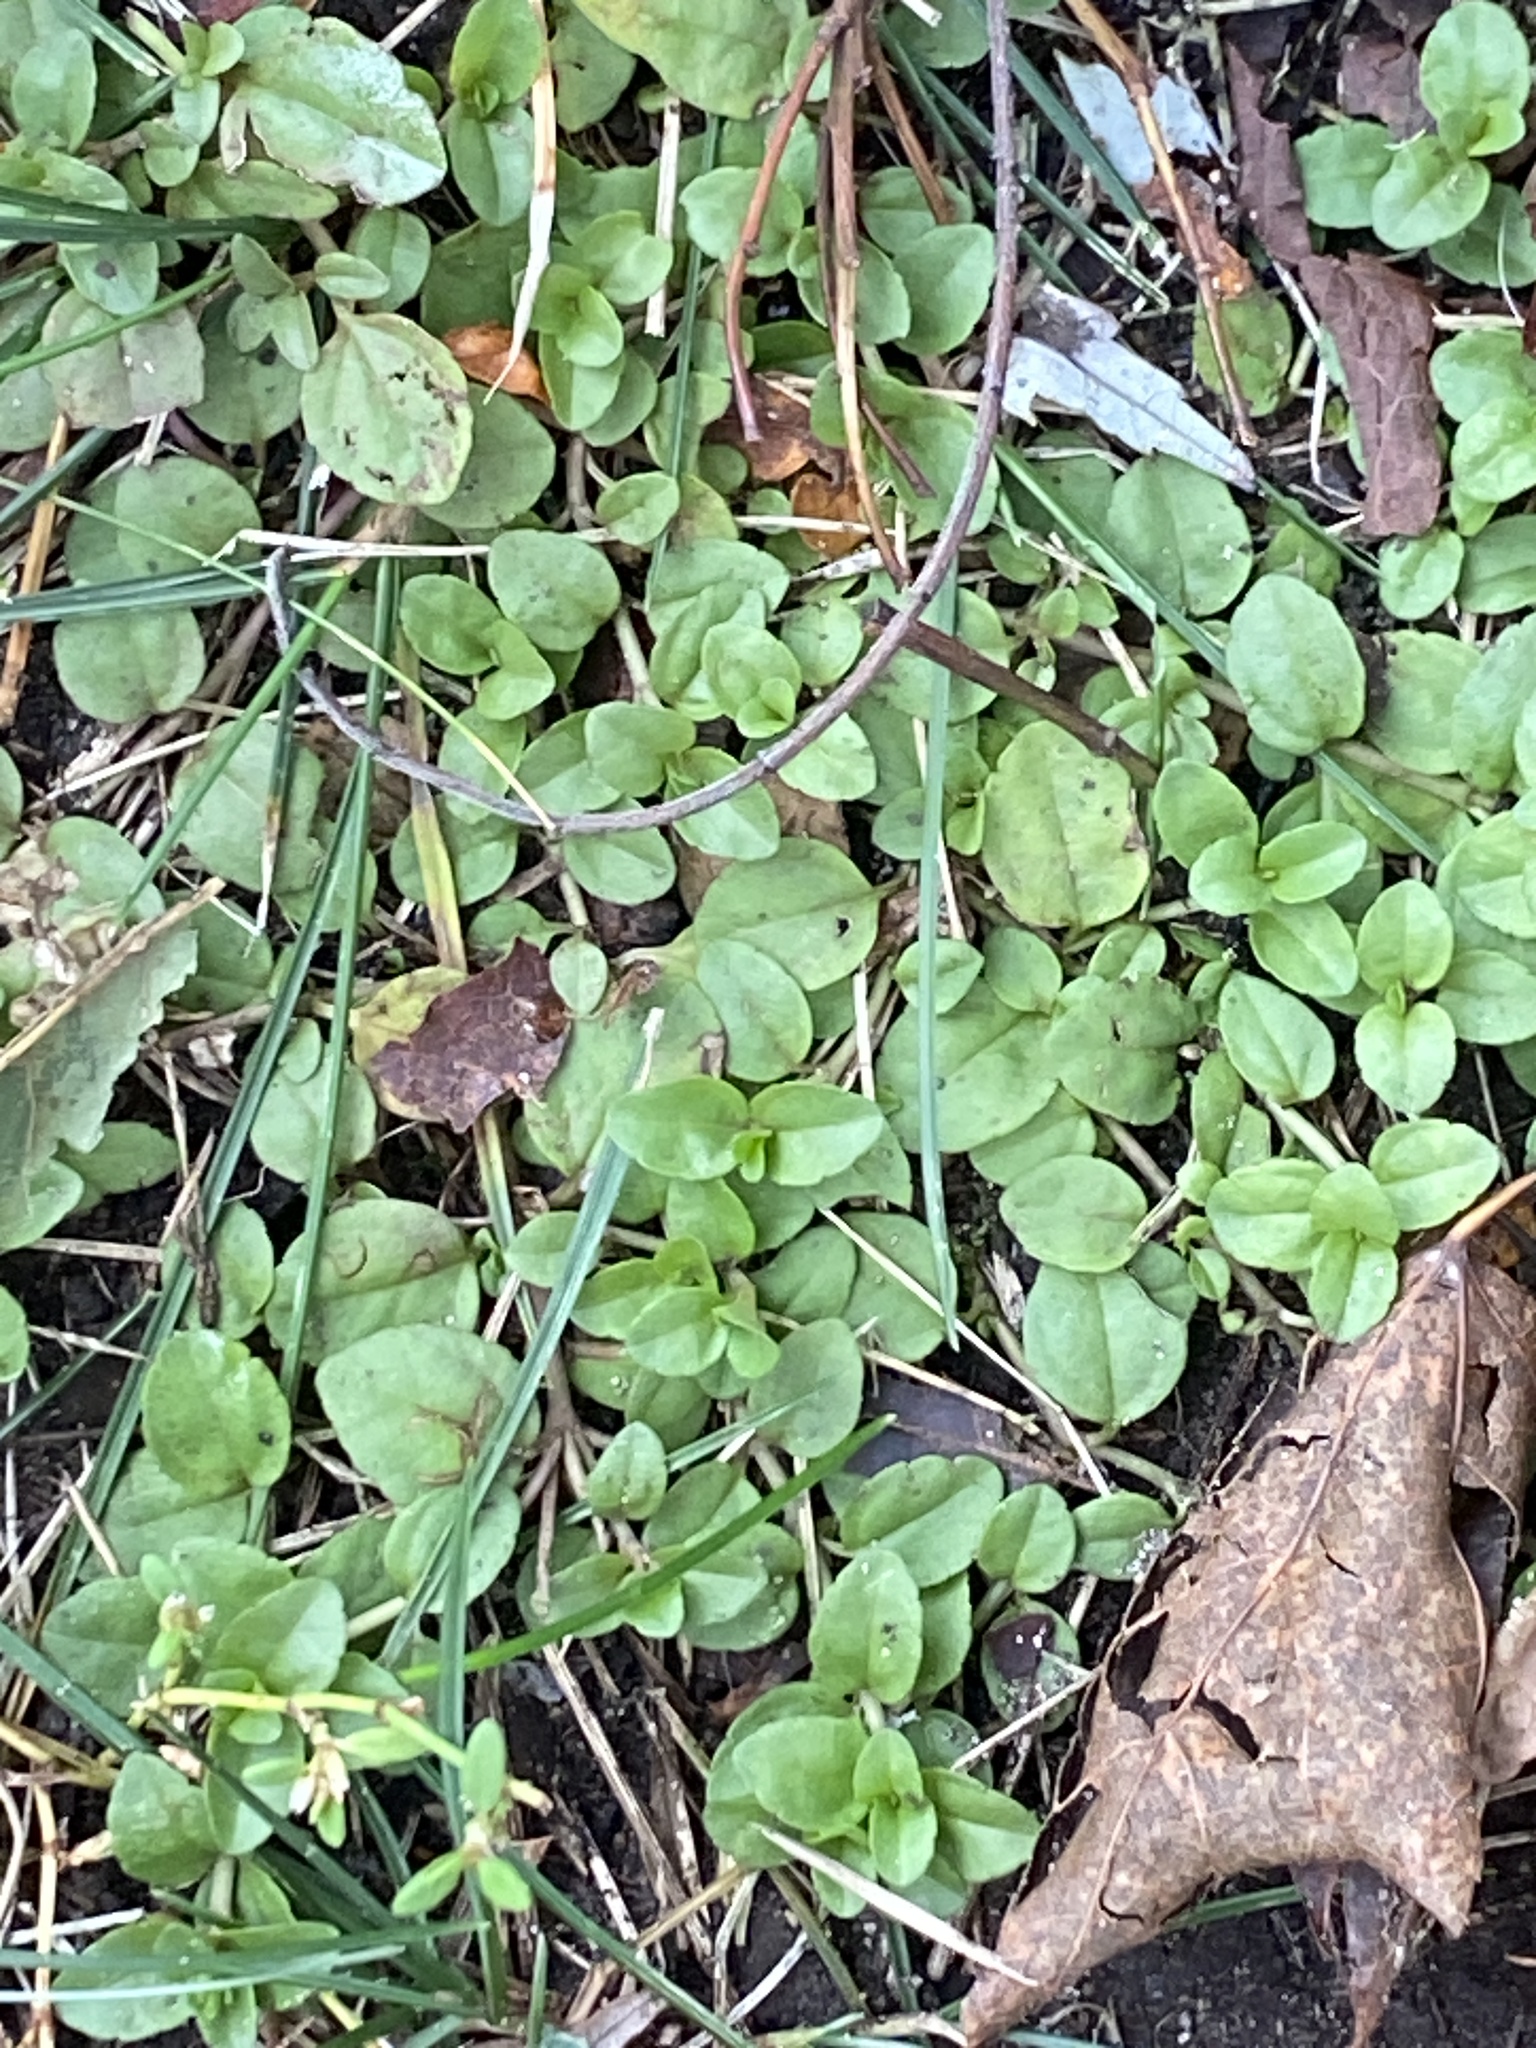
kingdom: Plantae
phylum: Tracheophyta
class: Magnoliopsida
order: Lamiales
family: Plantaginaceae
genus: Veronica
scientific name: Veronica serpyllifolia
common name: Thyme-leaved speedwell
